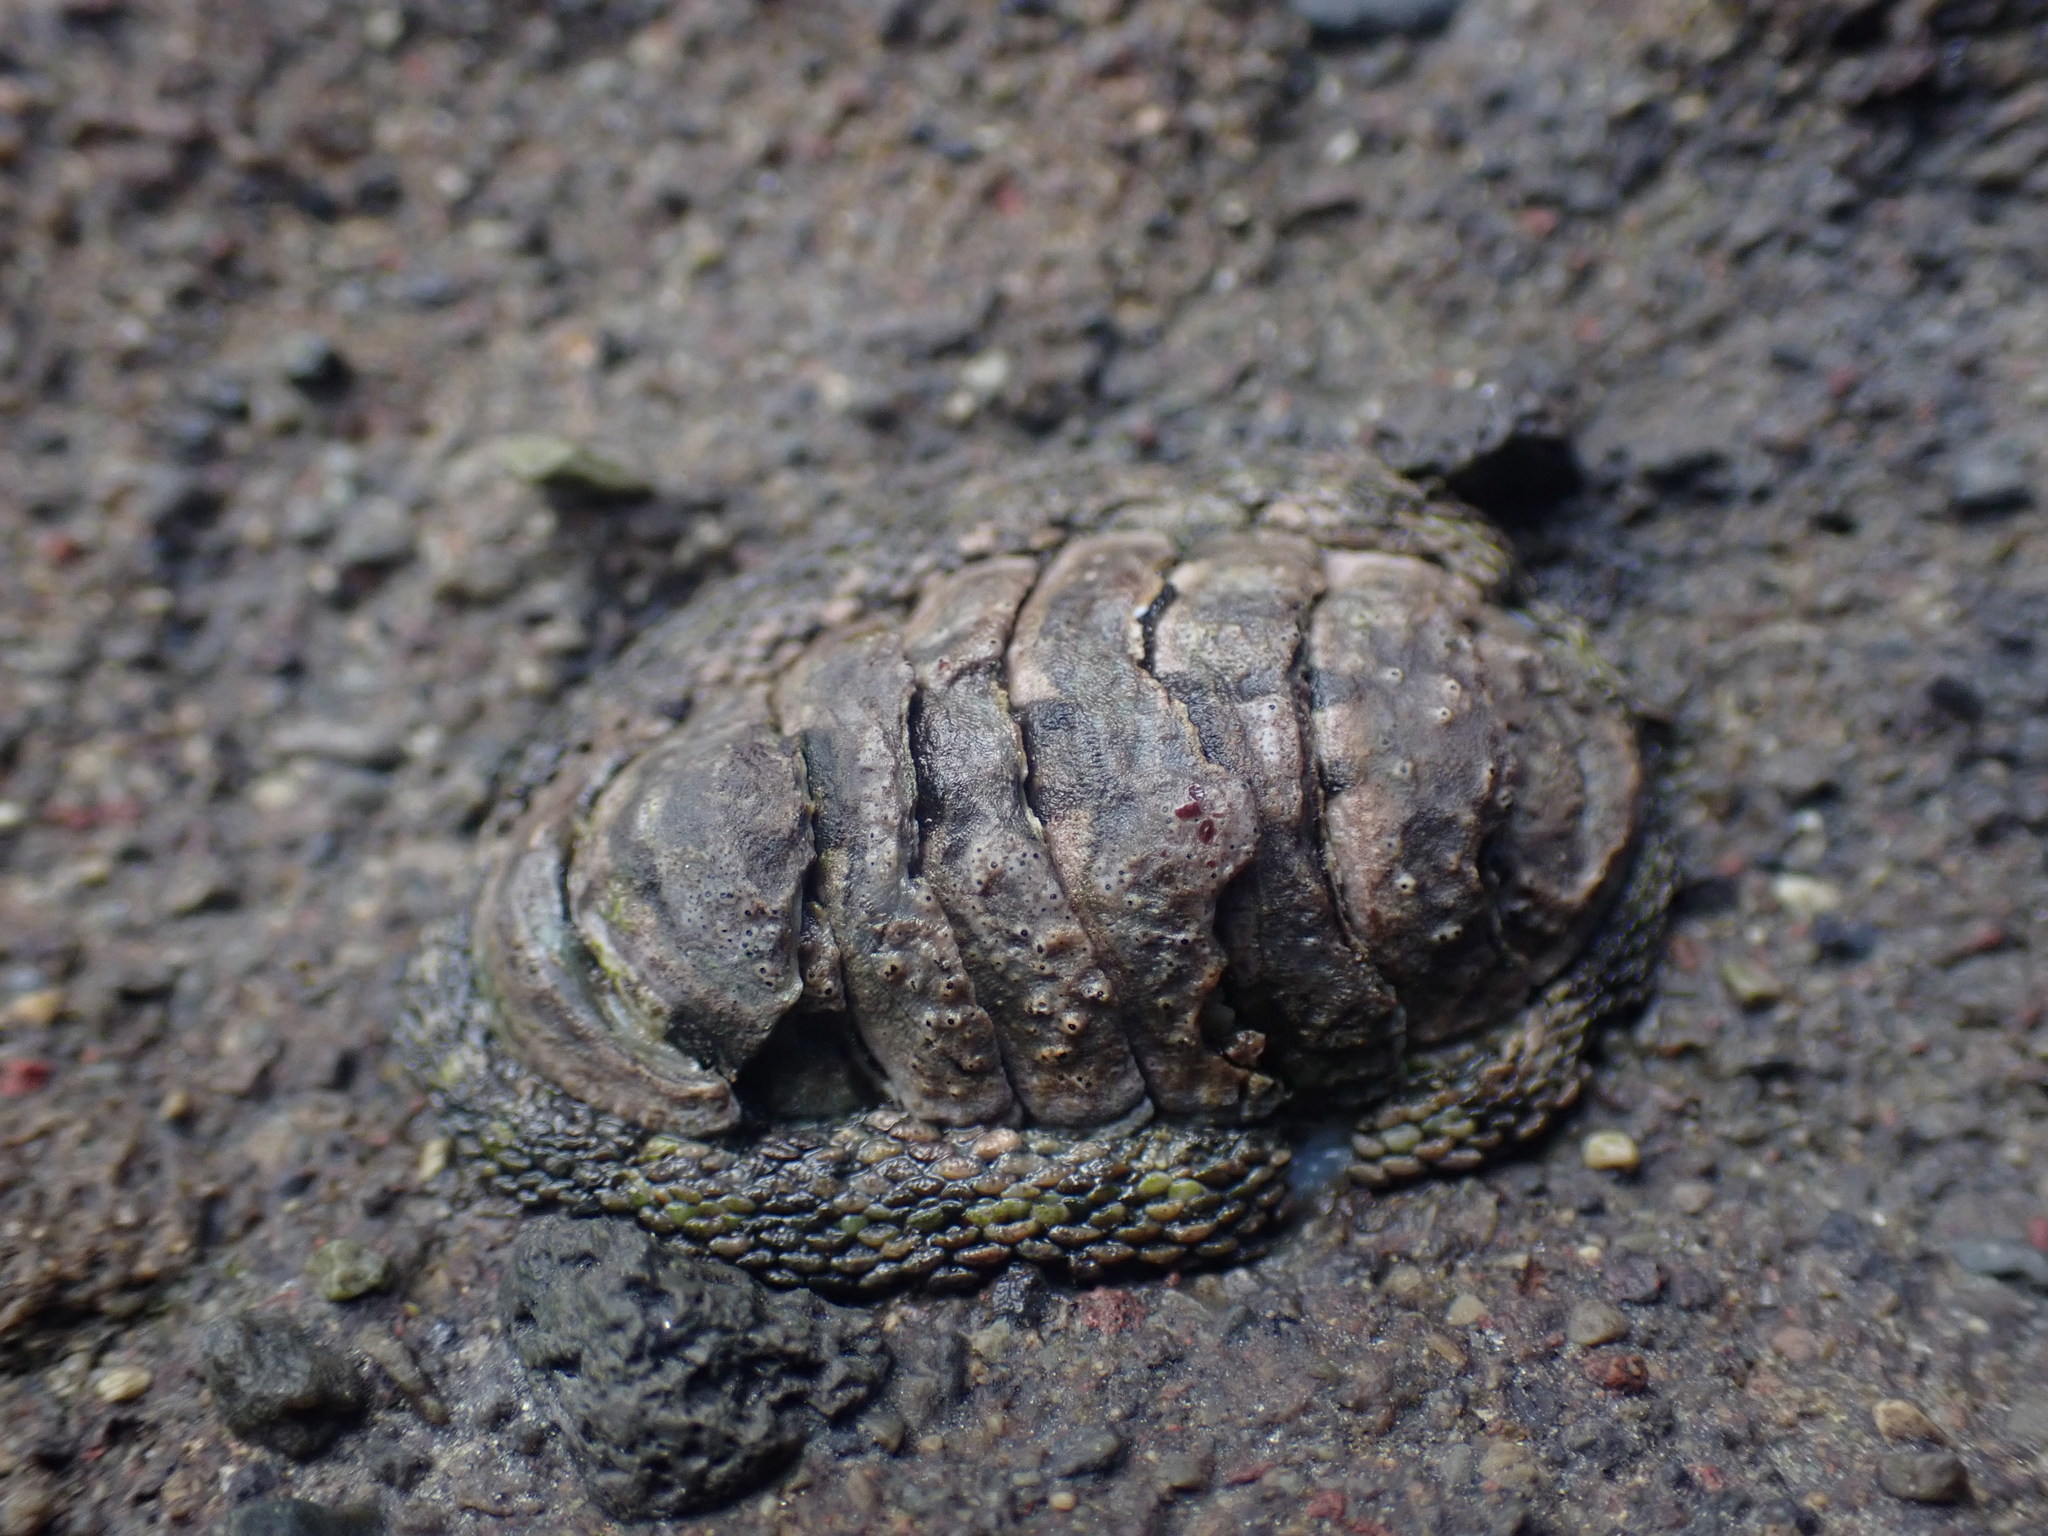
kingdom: Animalia
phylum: Mollusca
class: Polyplacophora
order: Chitonida
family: Chitonidae
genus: Sypharochiton
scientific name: Sypharochiton pelliserpentis
